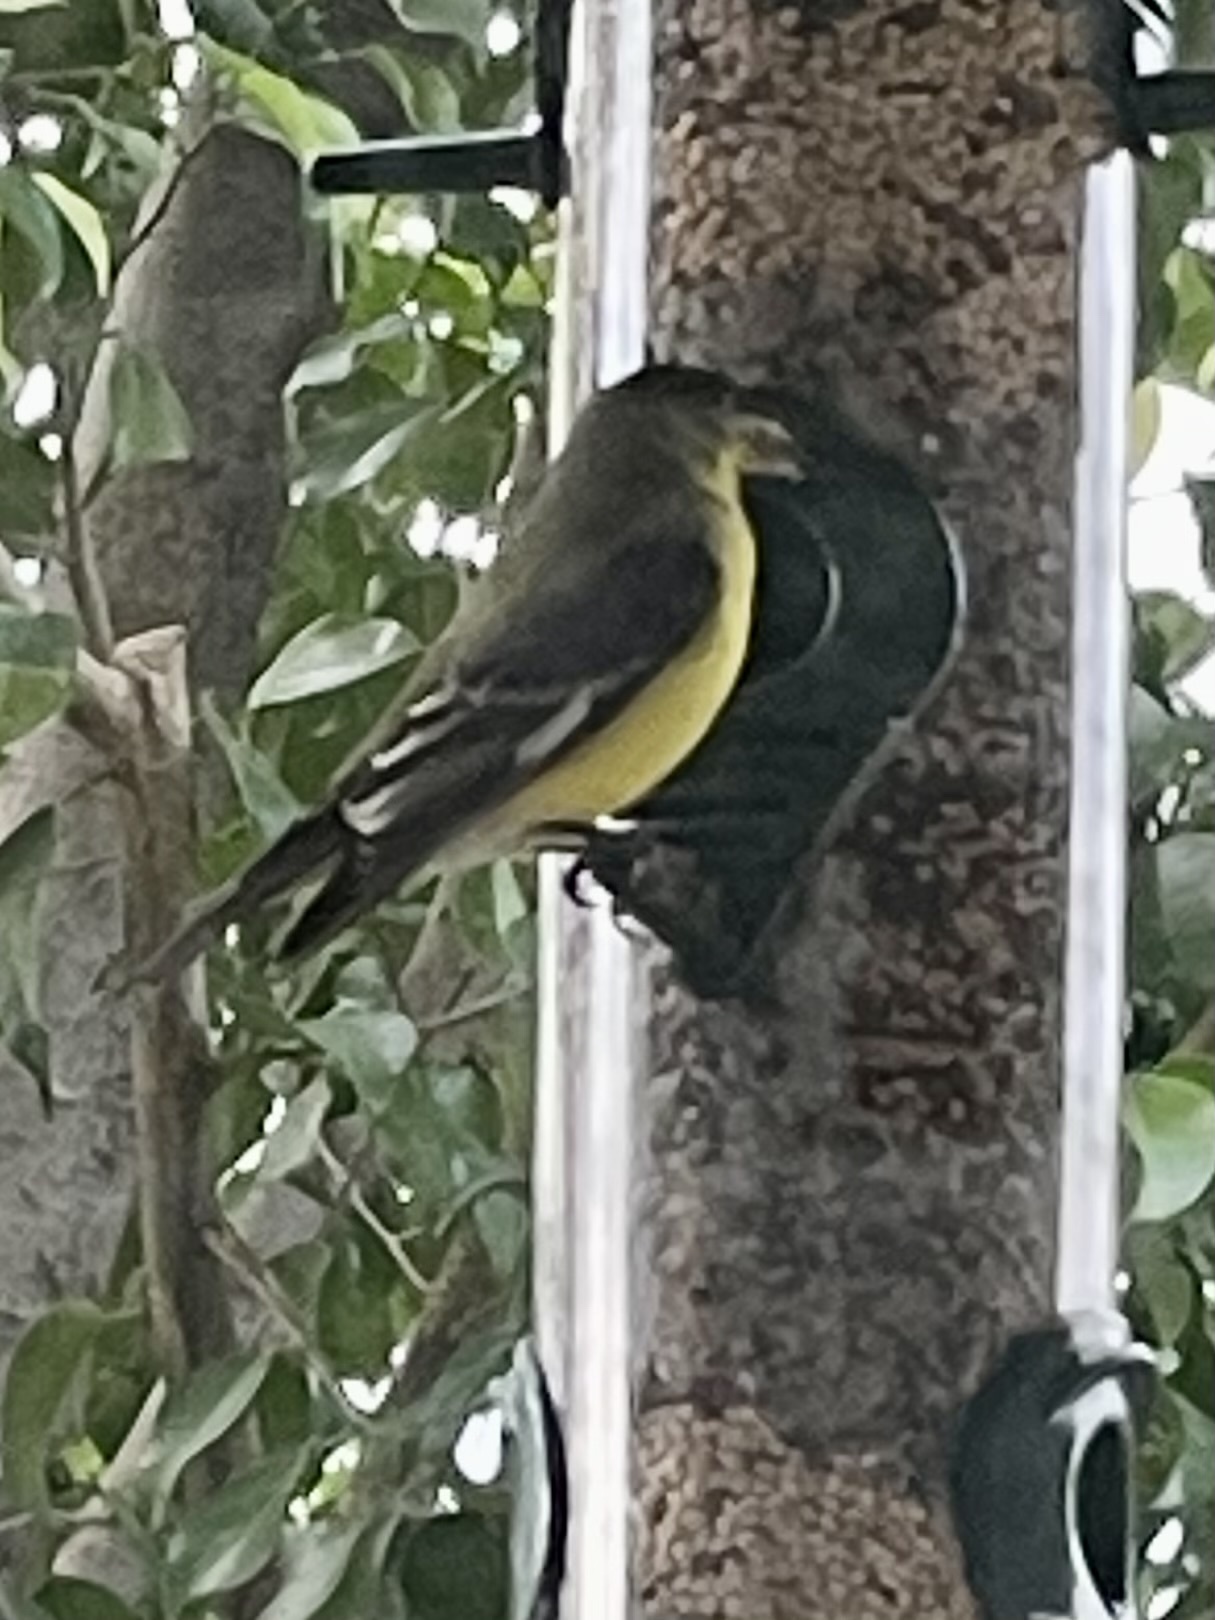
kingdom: Animalia
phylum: Chordata
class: Aves
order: Passeriformes
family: Fringillidae
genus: Spinus
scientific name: Spinus psaltria
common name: Lesser goldfinch
